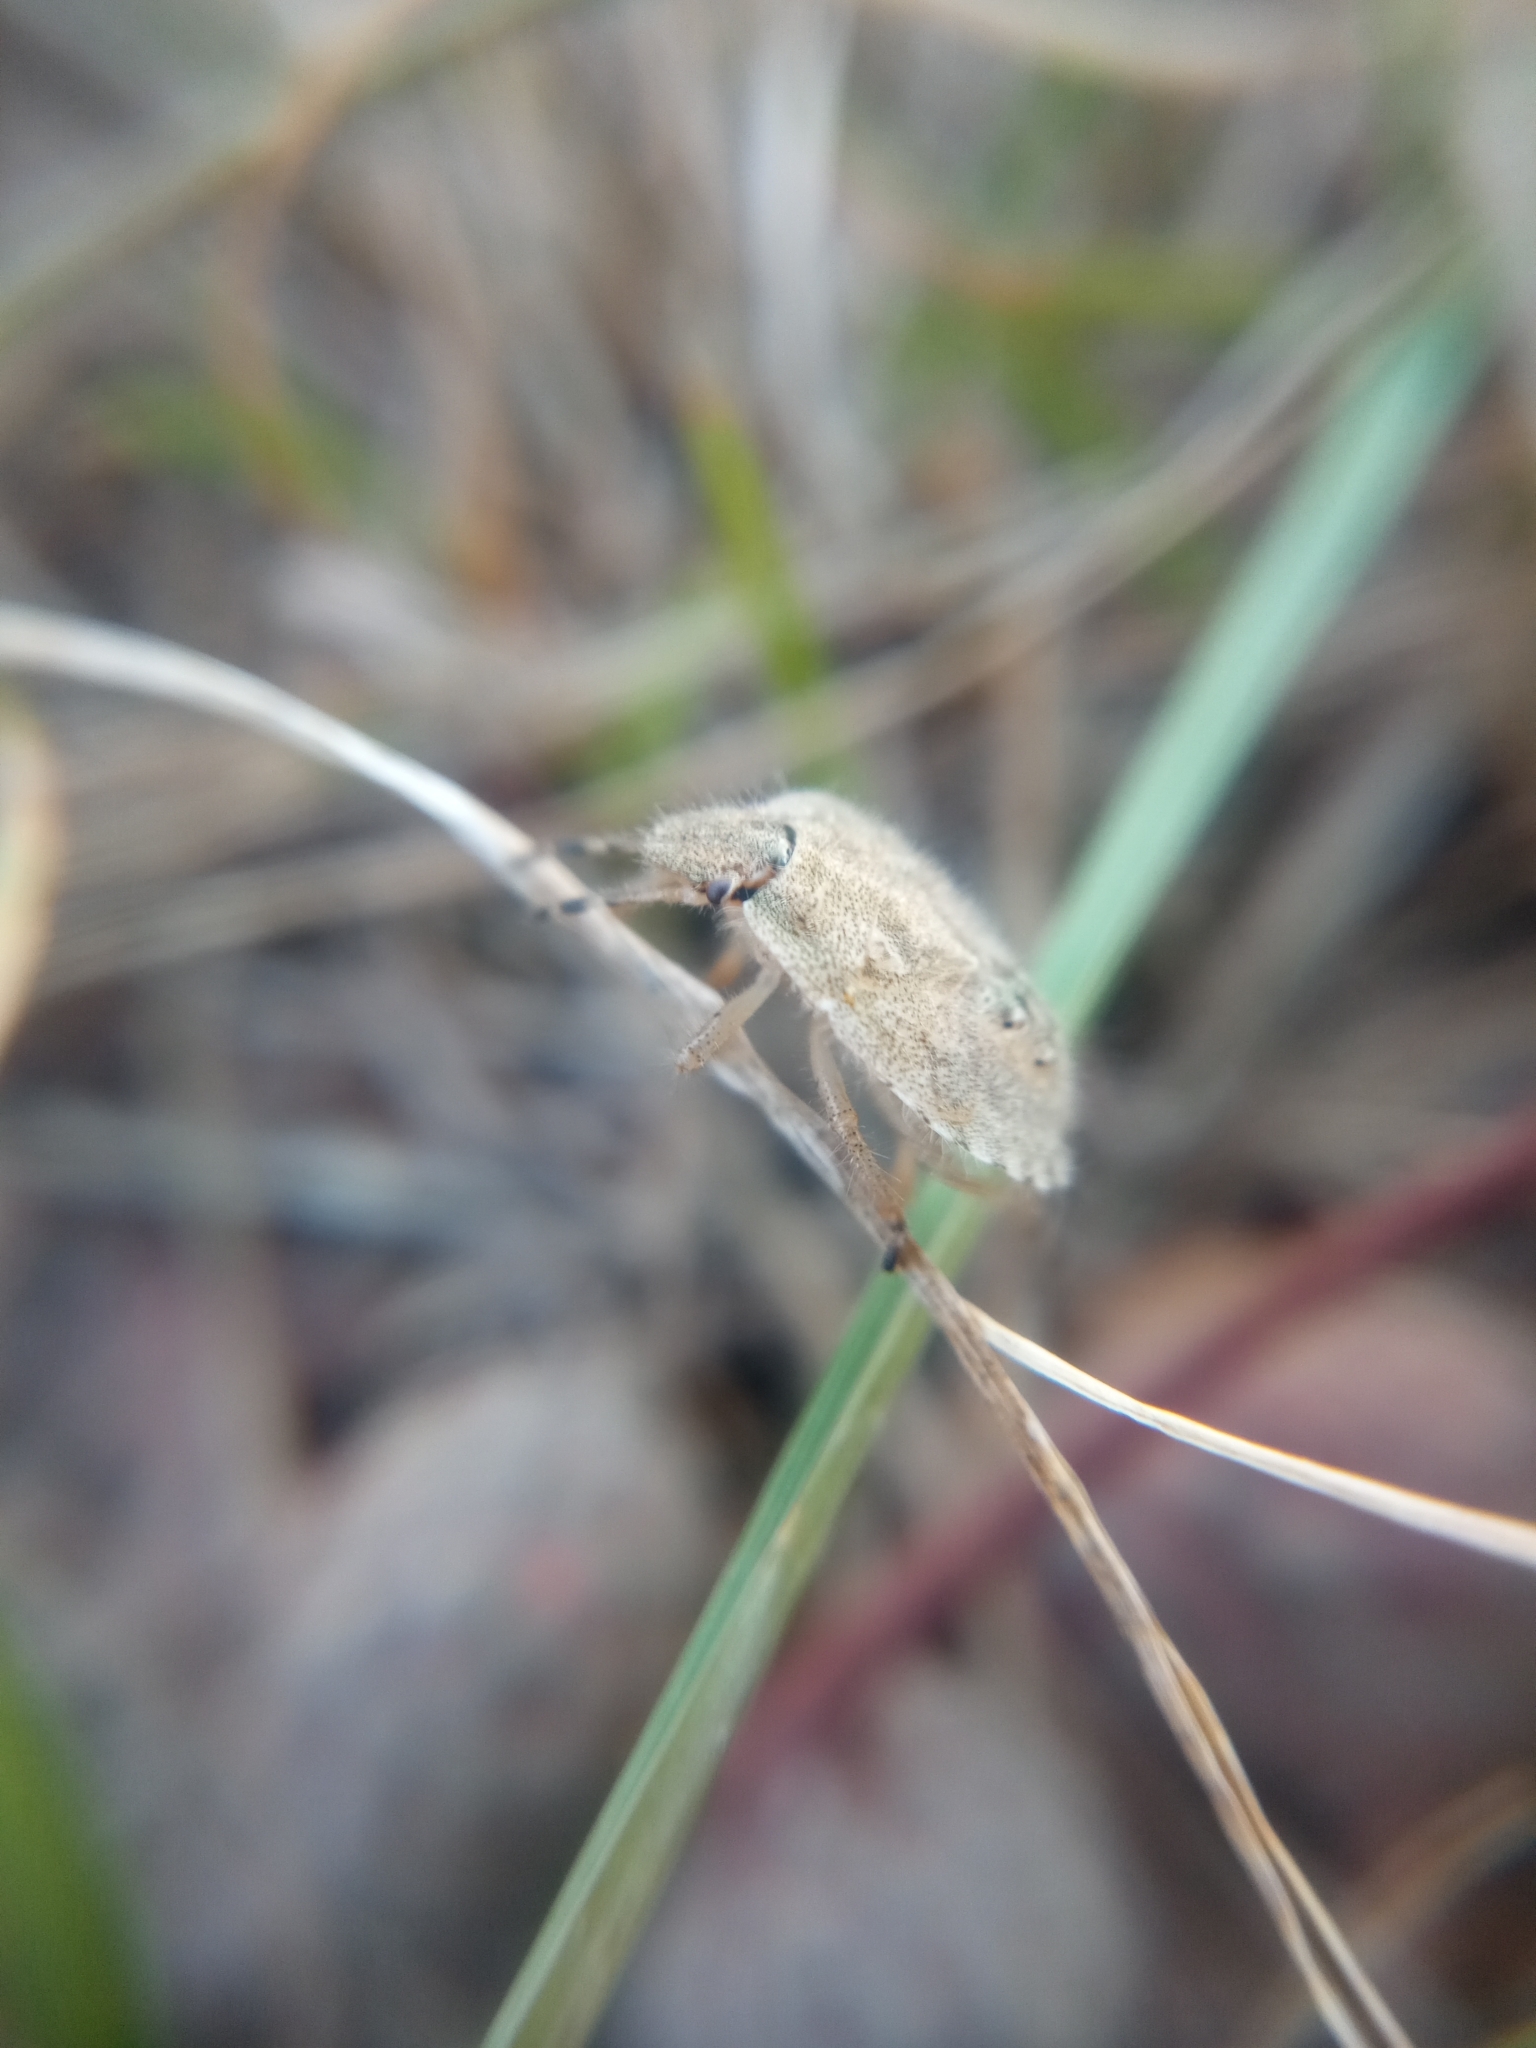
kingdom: Animalia
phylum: Arthropoda
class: Insecta
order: Hemiptera
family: Pentatomidae
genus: Dolycoris
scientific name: Dolycoris baccarum
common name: Sloe bug
